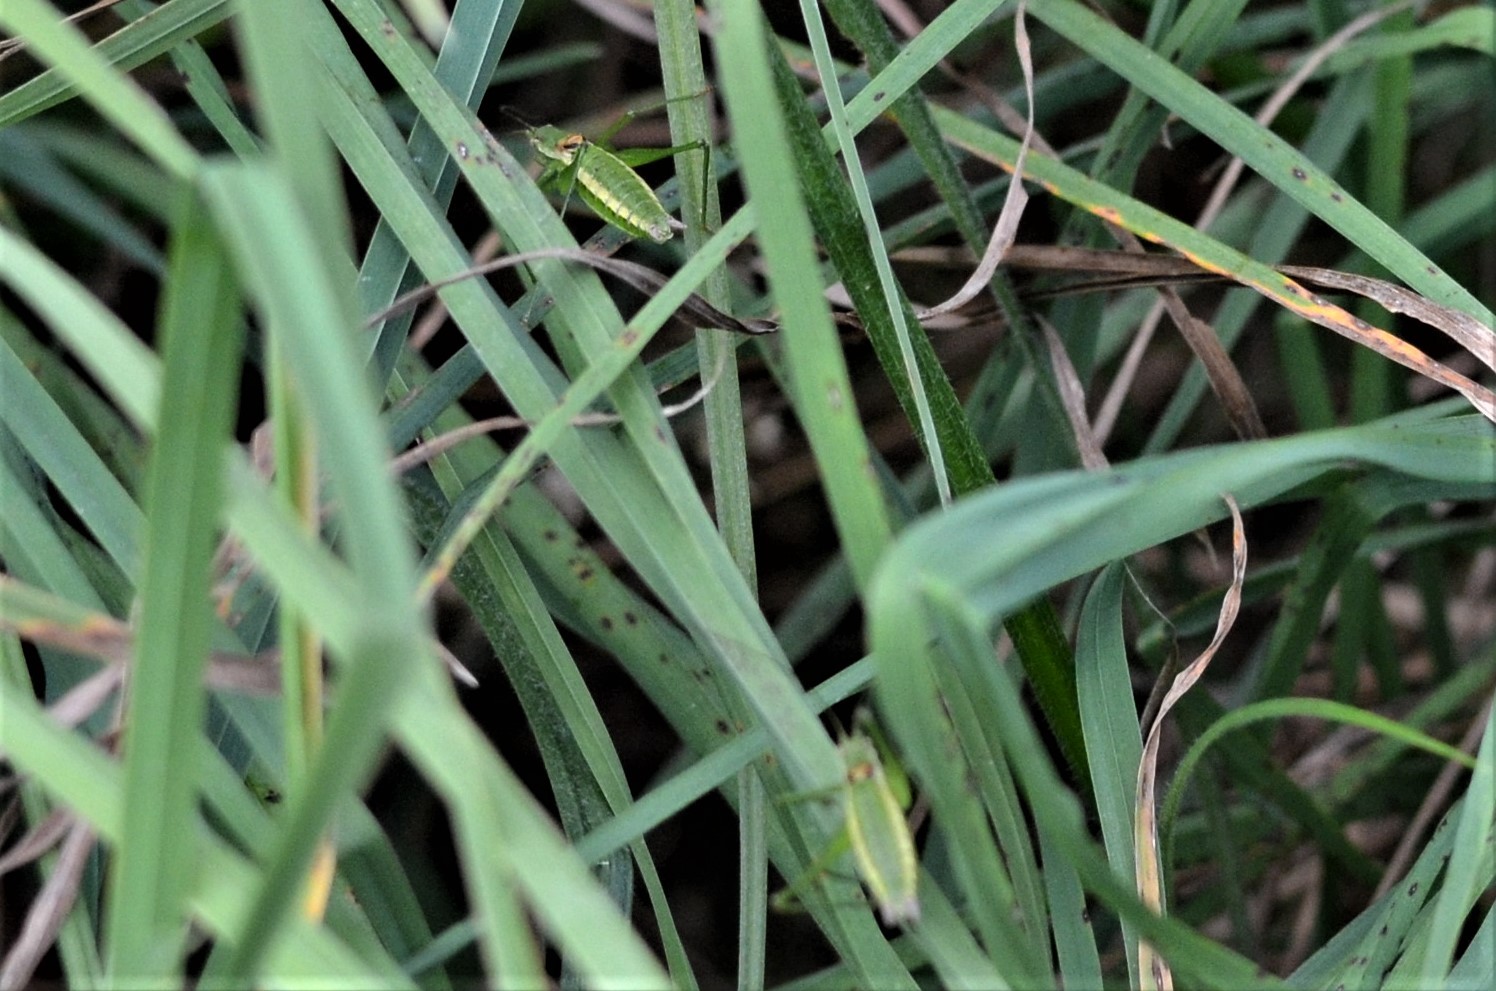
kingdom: Animalia
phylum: Arthropoda
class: Insecta
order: Orthoptera
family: Tettigoniidae
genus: Leptophyes
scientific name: Leptophyes boscii
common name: Balkan speckled bush-cricket
